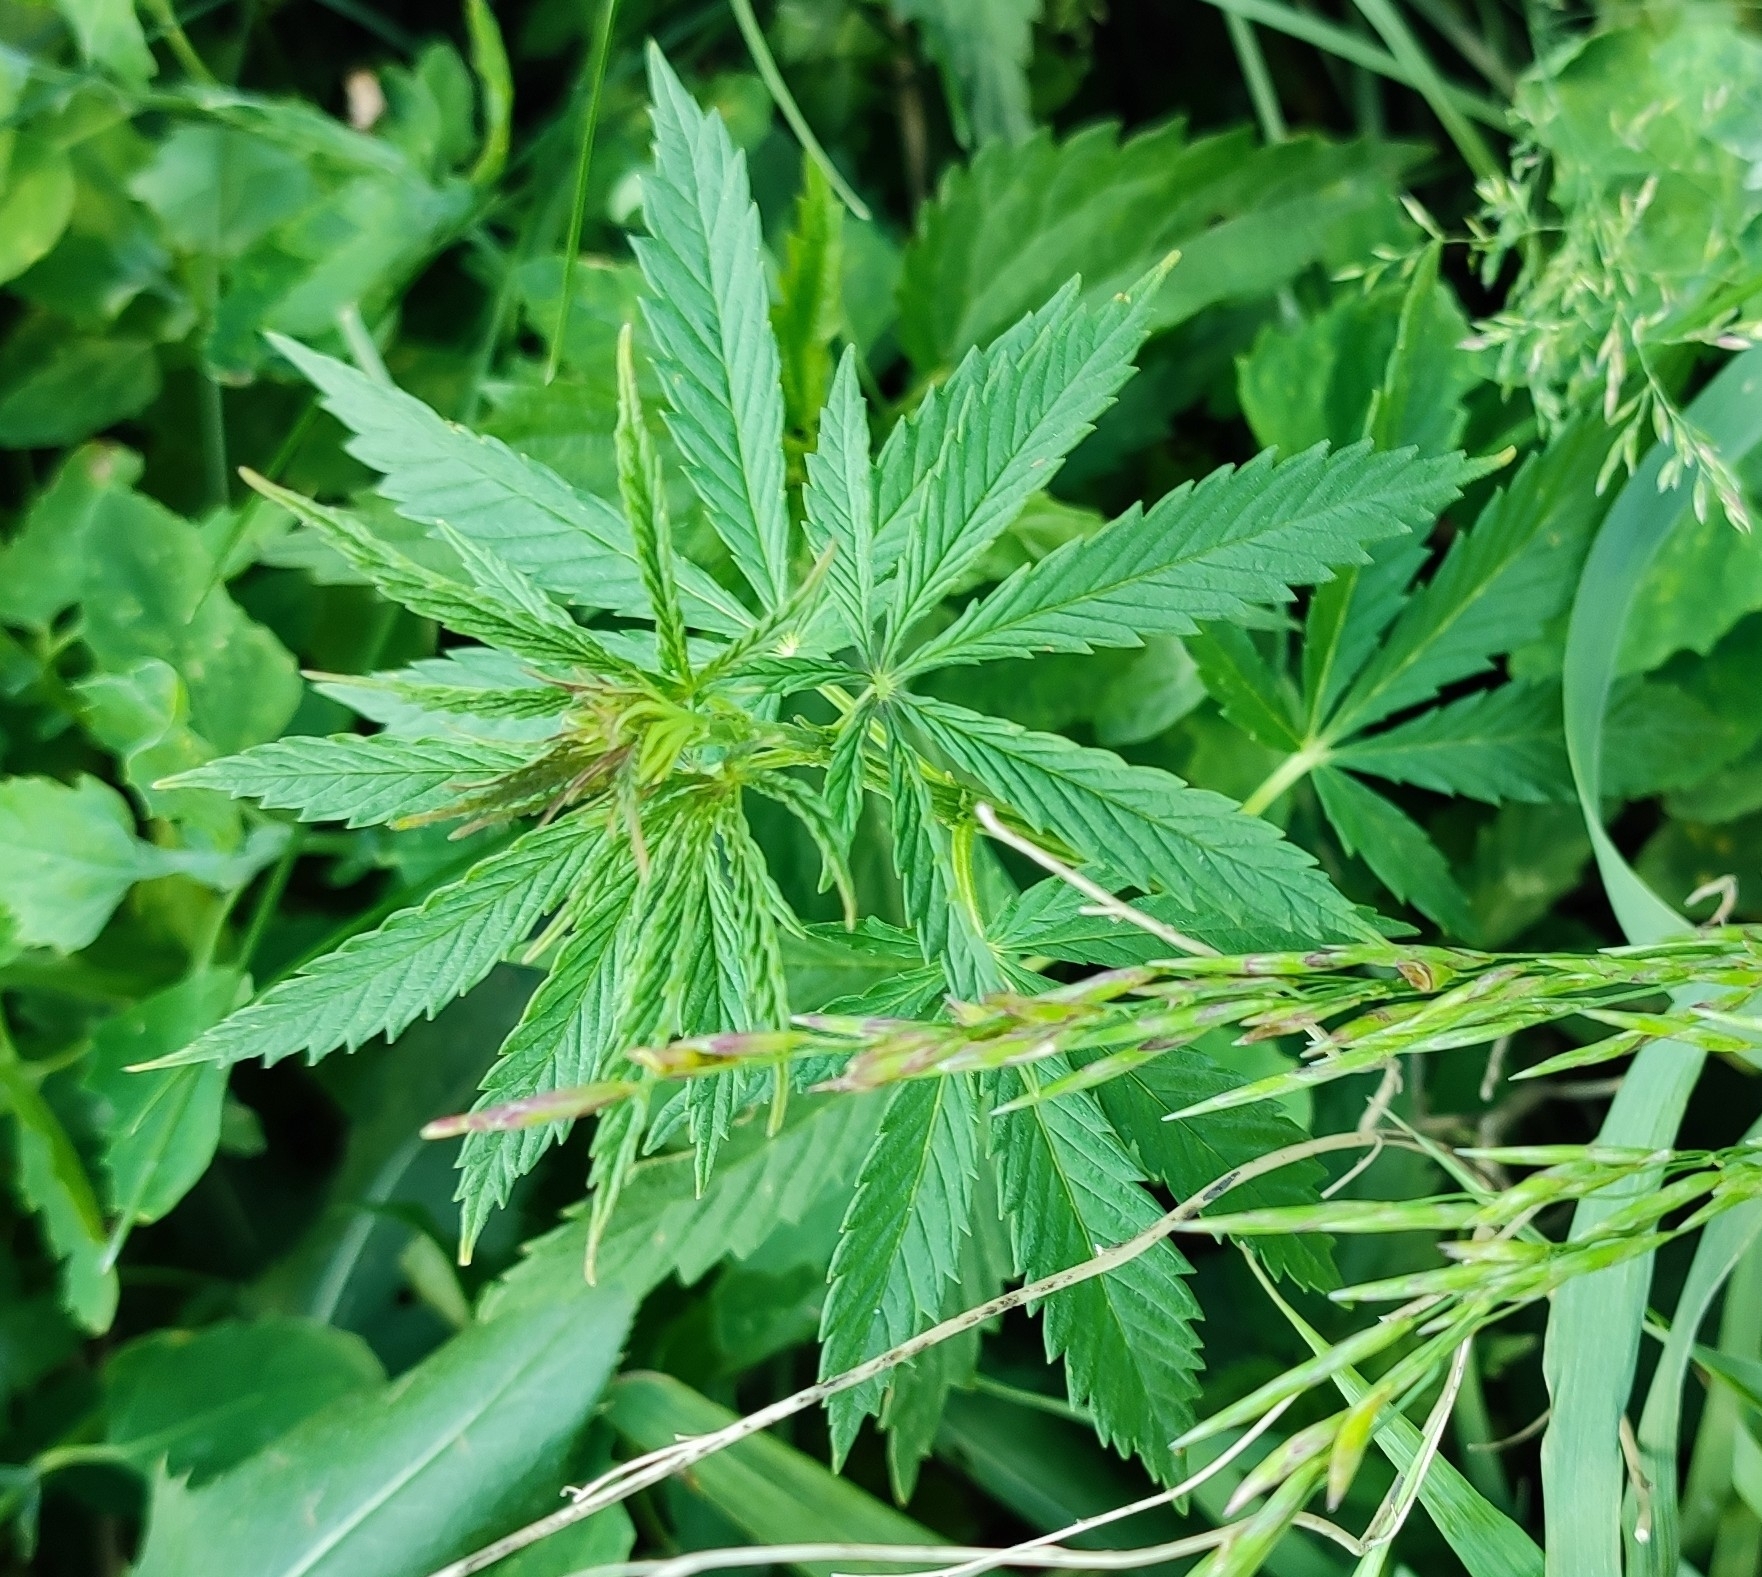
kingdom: Plantae
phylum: Tracheophyta
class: Magnoliopsida
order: Rosales
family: Cannabaceae
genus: Cannabis
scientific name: Cannabis sativa
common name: Hemp
